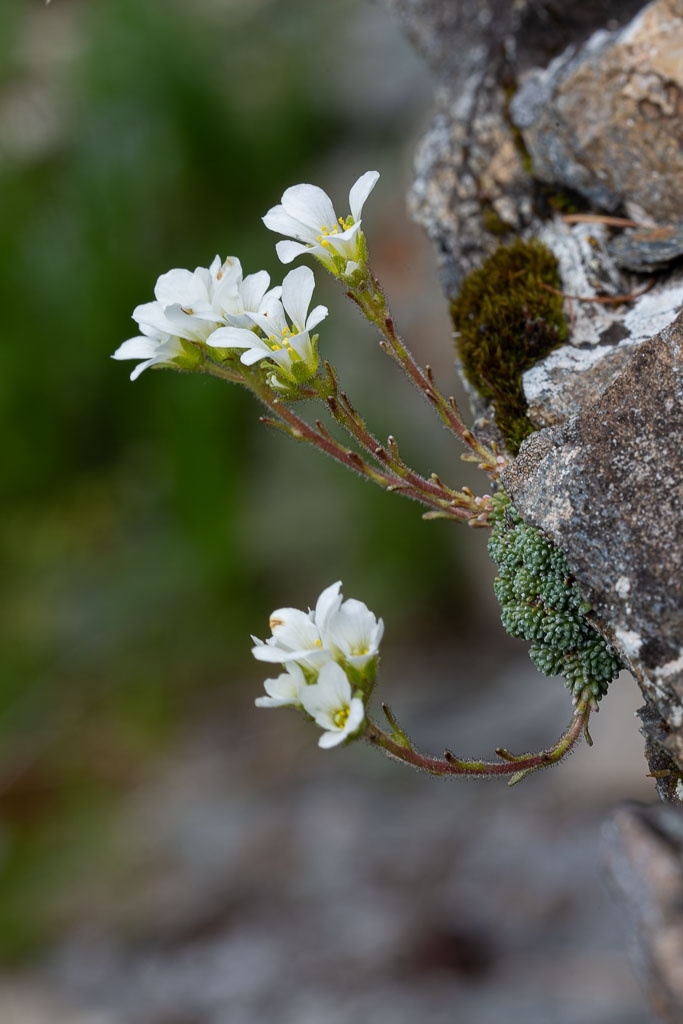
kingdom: Plantae
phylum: Tracheophyta
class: Magnoliopsida
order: Saxifragales
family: Saxifragaceae
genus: Saxifraga
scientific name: Saxifraga diapensioides
